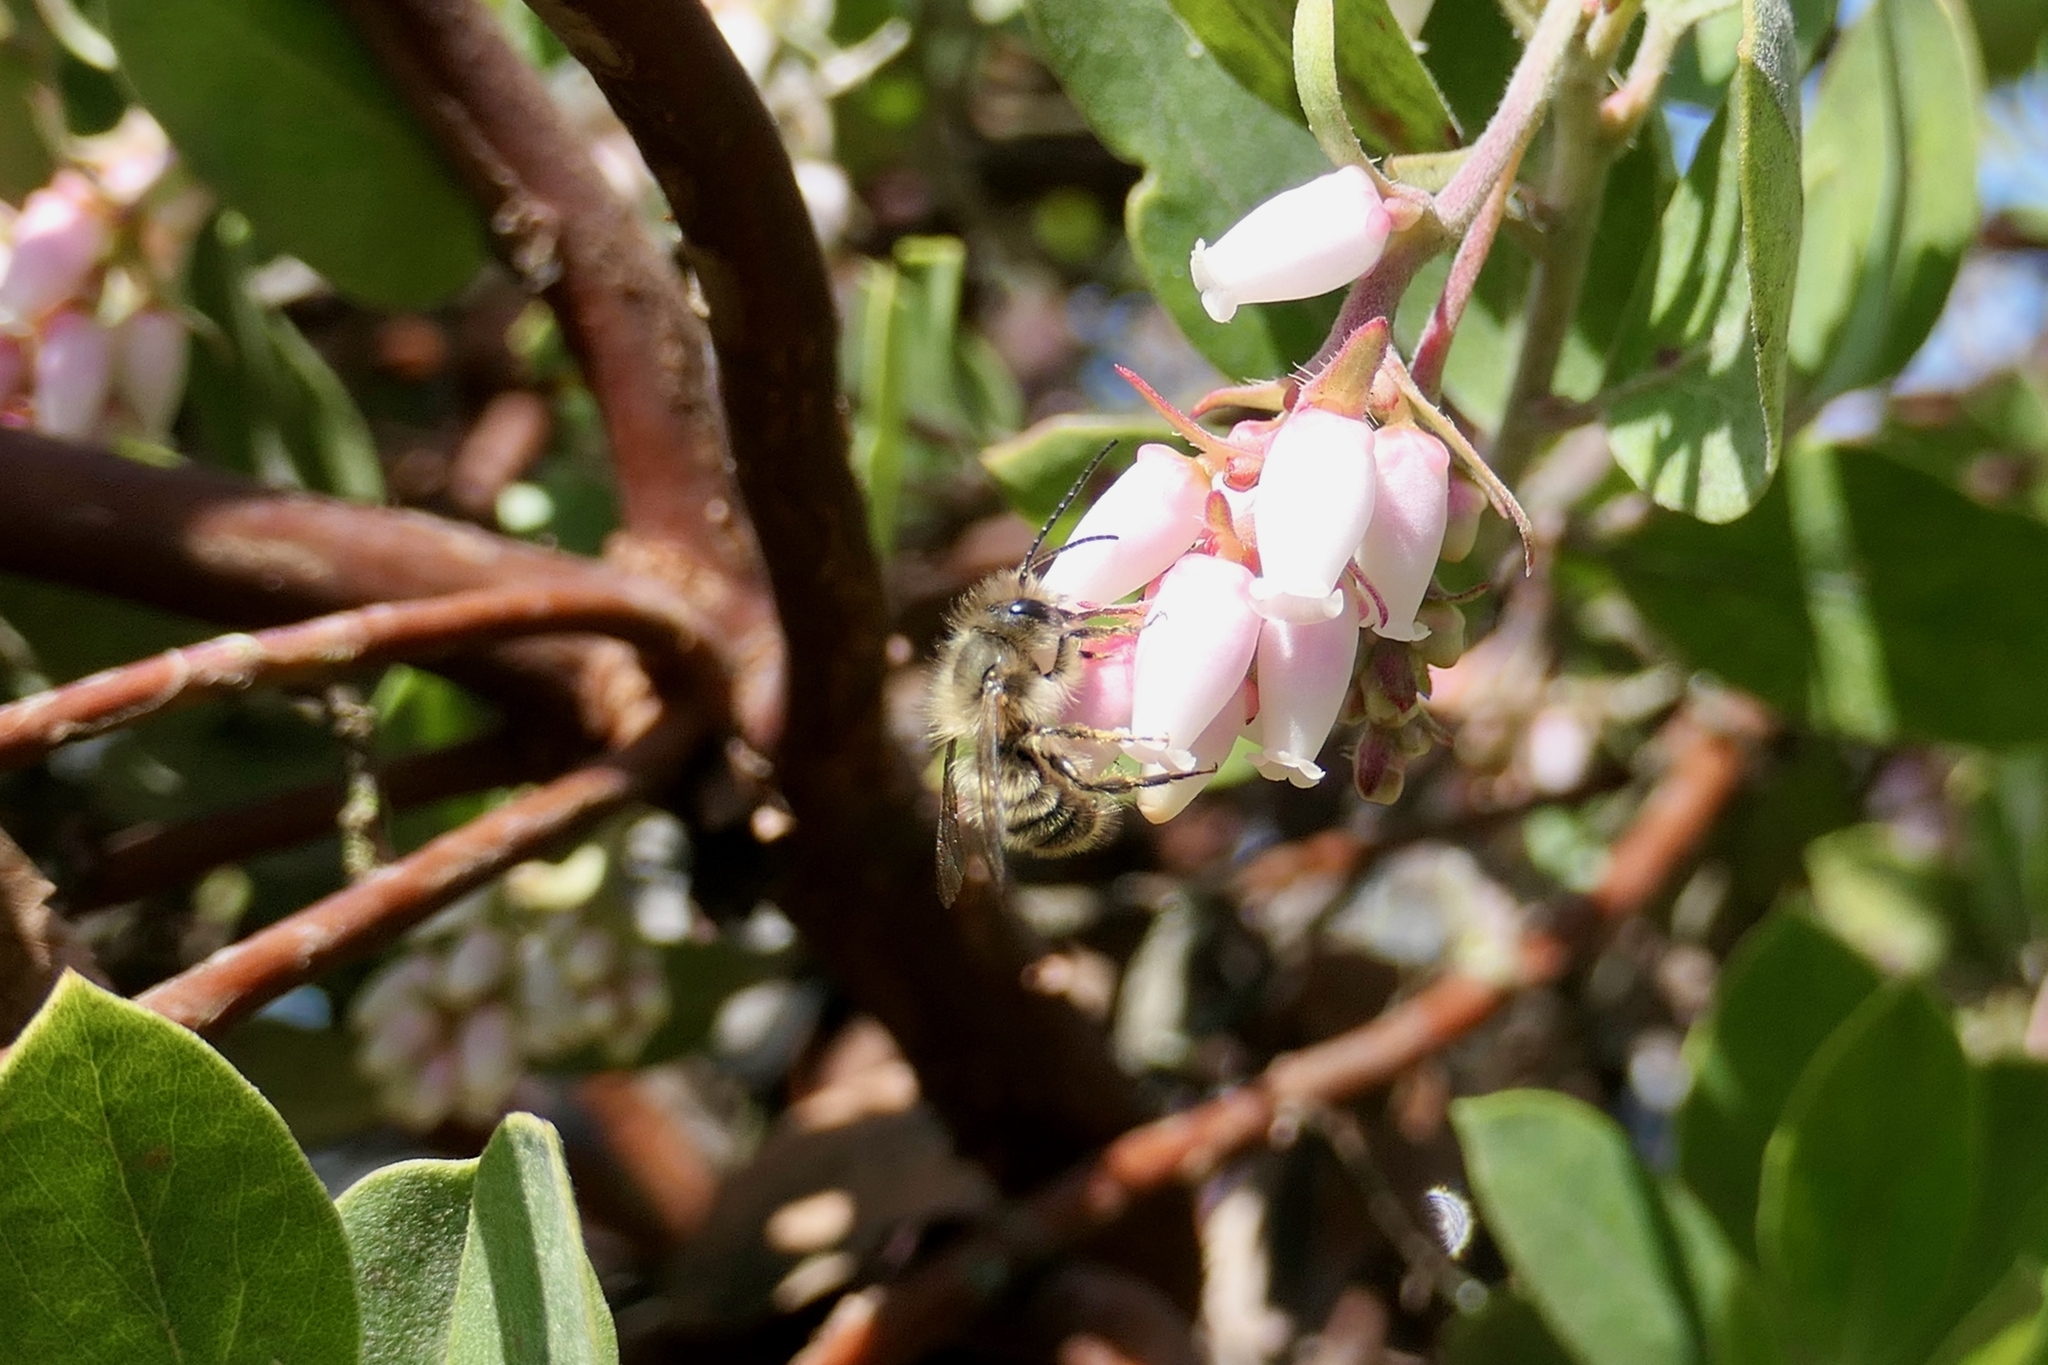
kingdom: Animalia
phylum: Arthropoda
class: Insecta
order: Hymenoptera
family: Megachilidae
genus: Osmia
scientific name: Osmia cornifrons
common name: Horn-faced bee
